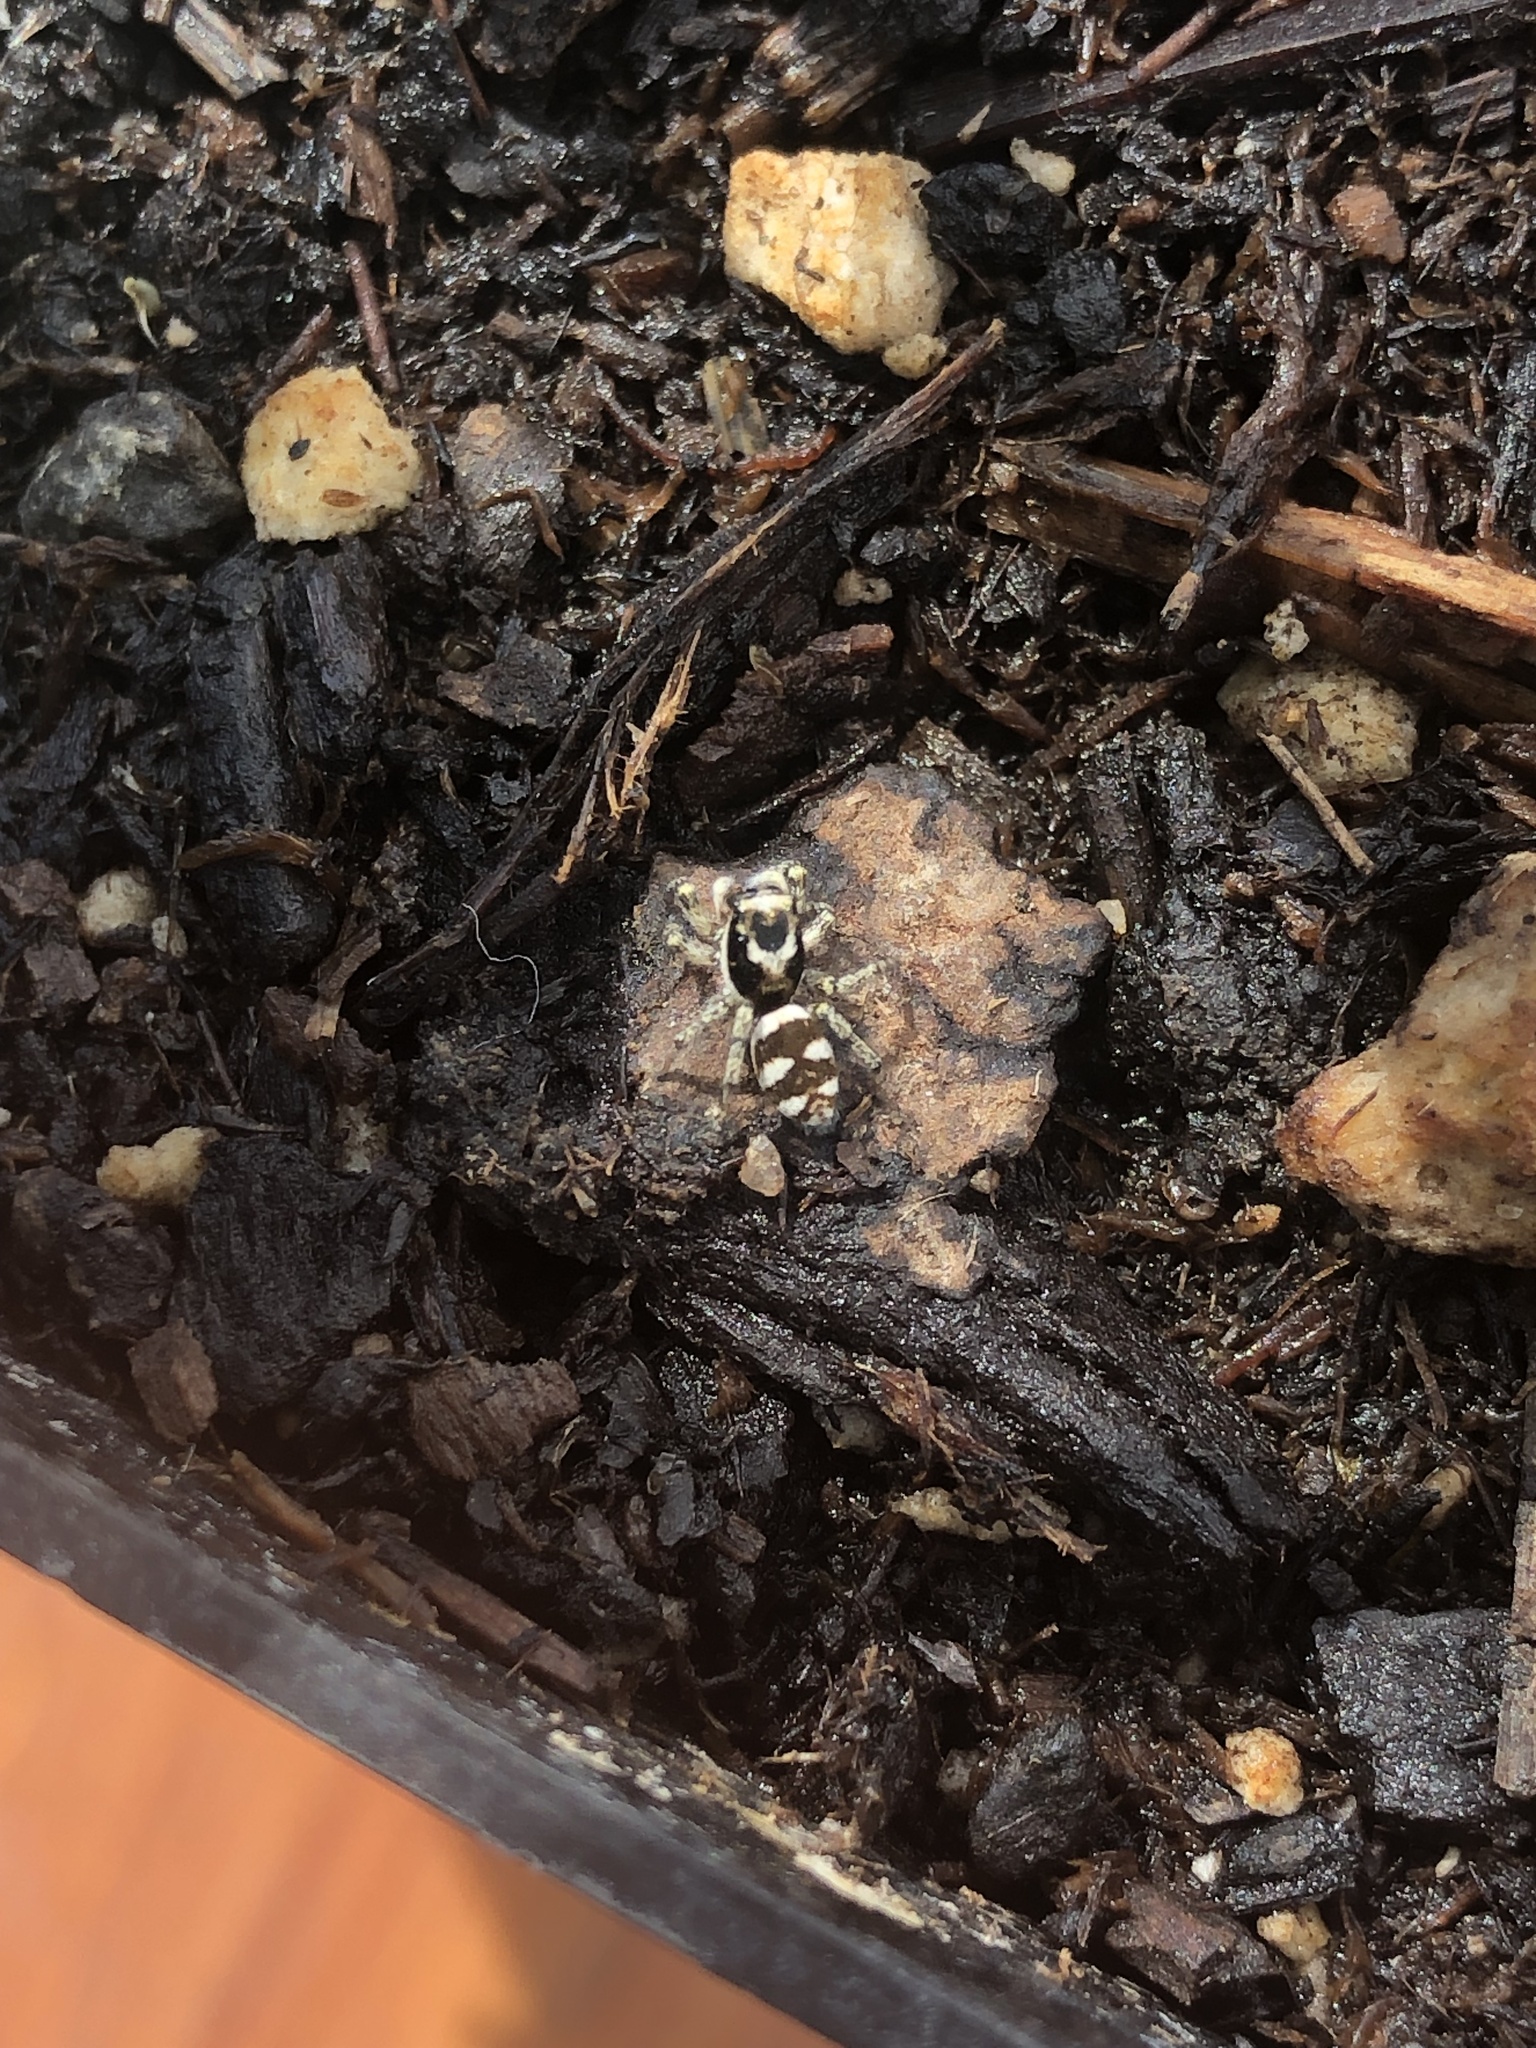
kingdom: Animalia
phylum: Arthropoda
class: Arachnida
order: Araneae
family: Salticidae
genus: Salticus
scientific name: Salticus scenicus
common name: Zebra jumper
